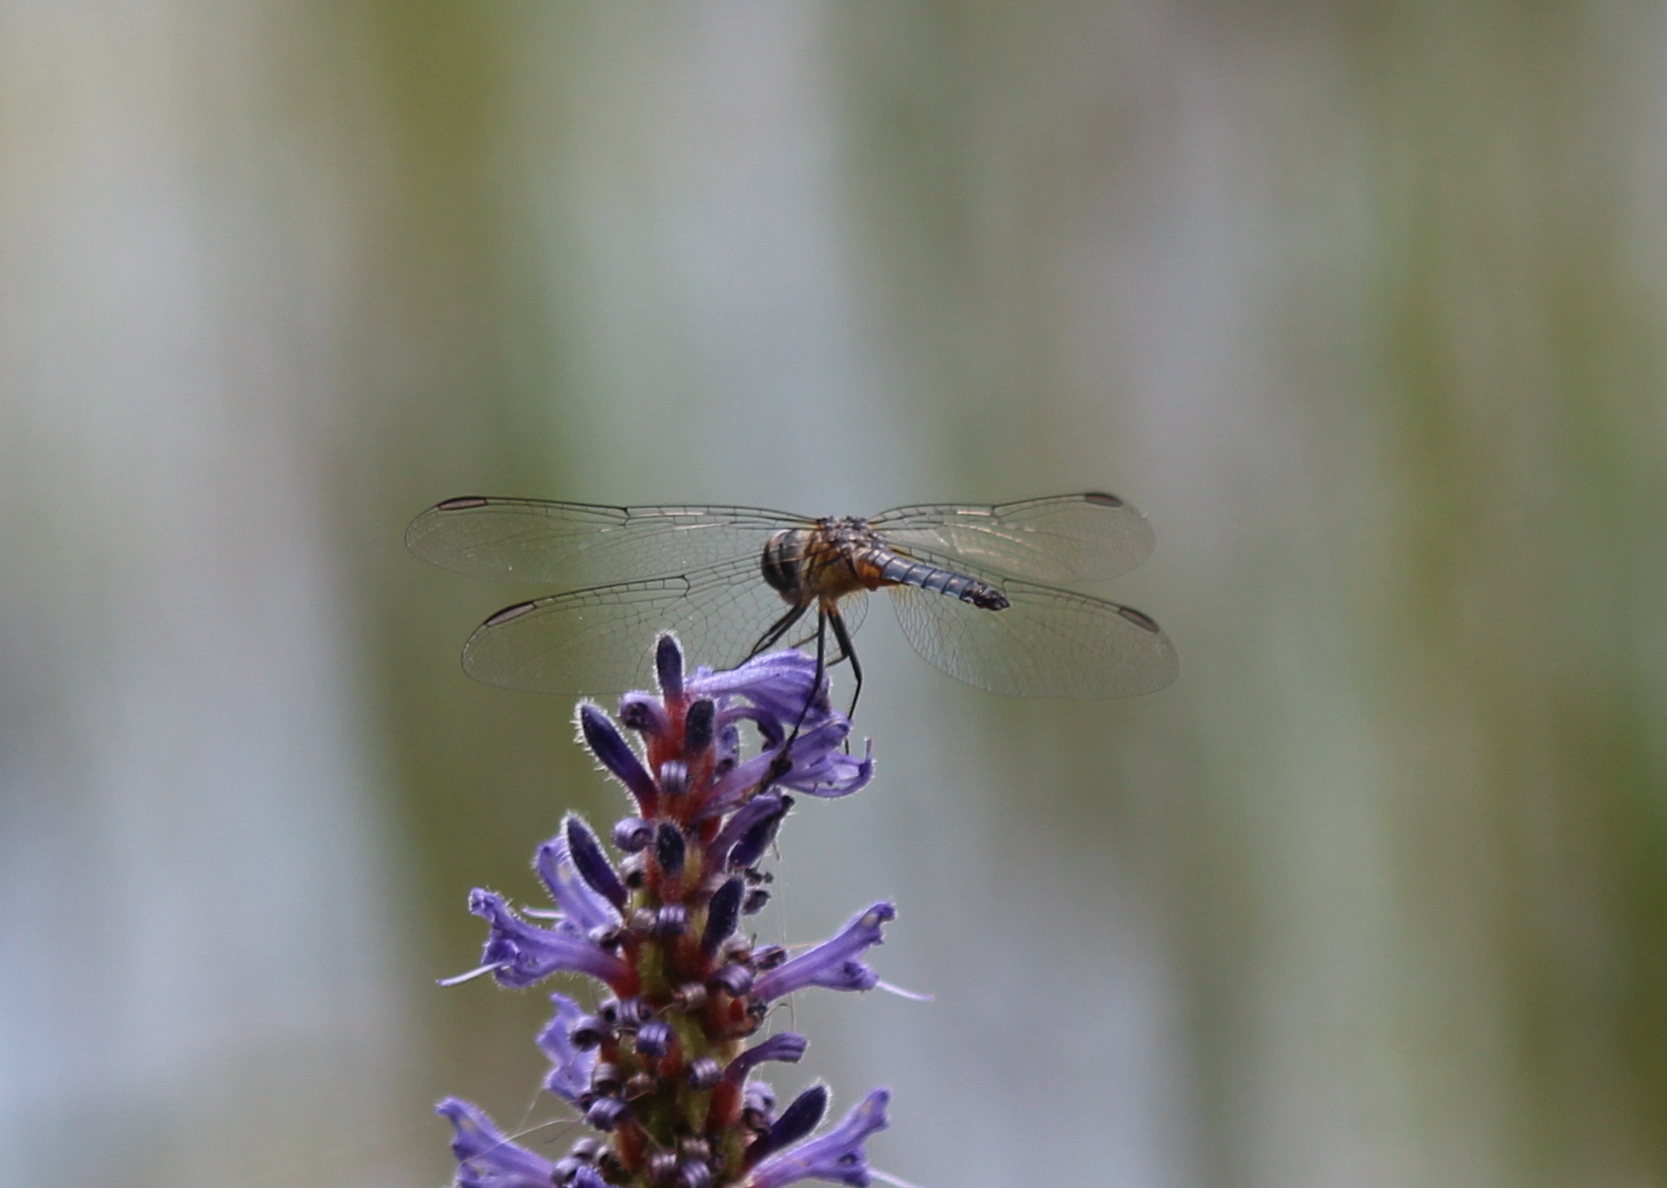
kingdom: Animalia
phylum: Arthropoda
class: Insecta
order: Odonata
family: Libellulidae
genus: Pachydiplax
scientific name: Pachydiplax longipennis
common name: Blue dasher
